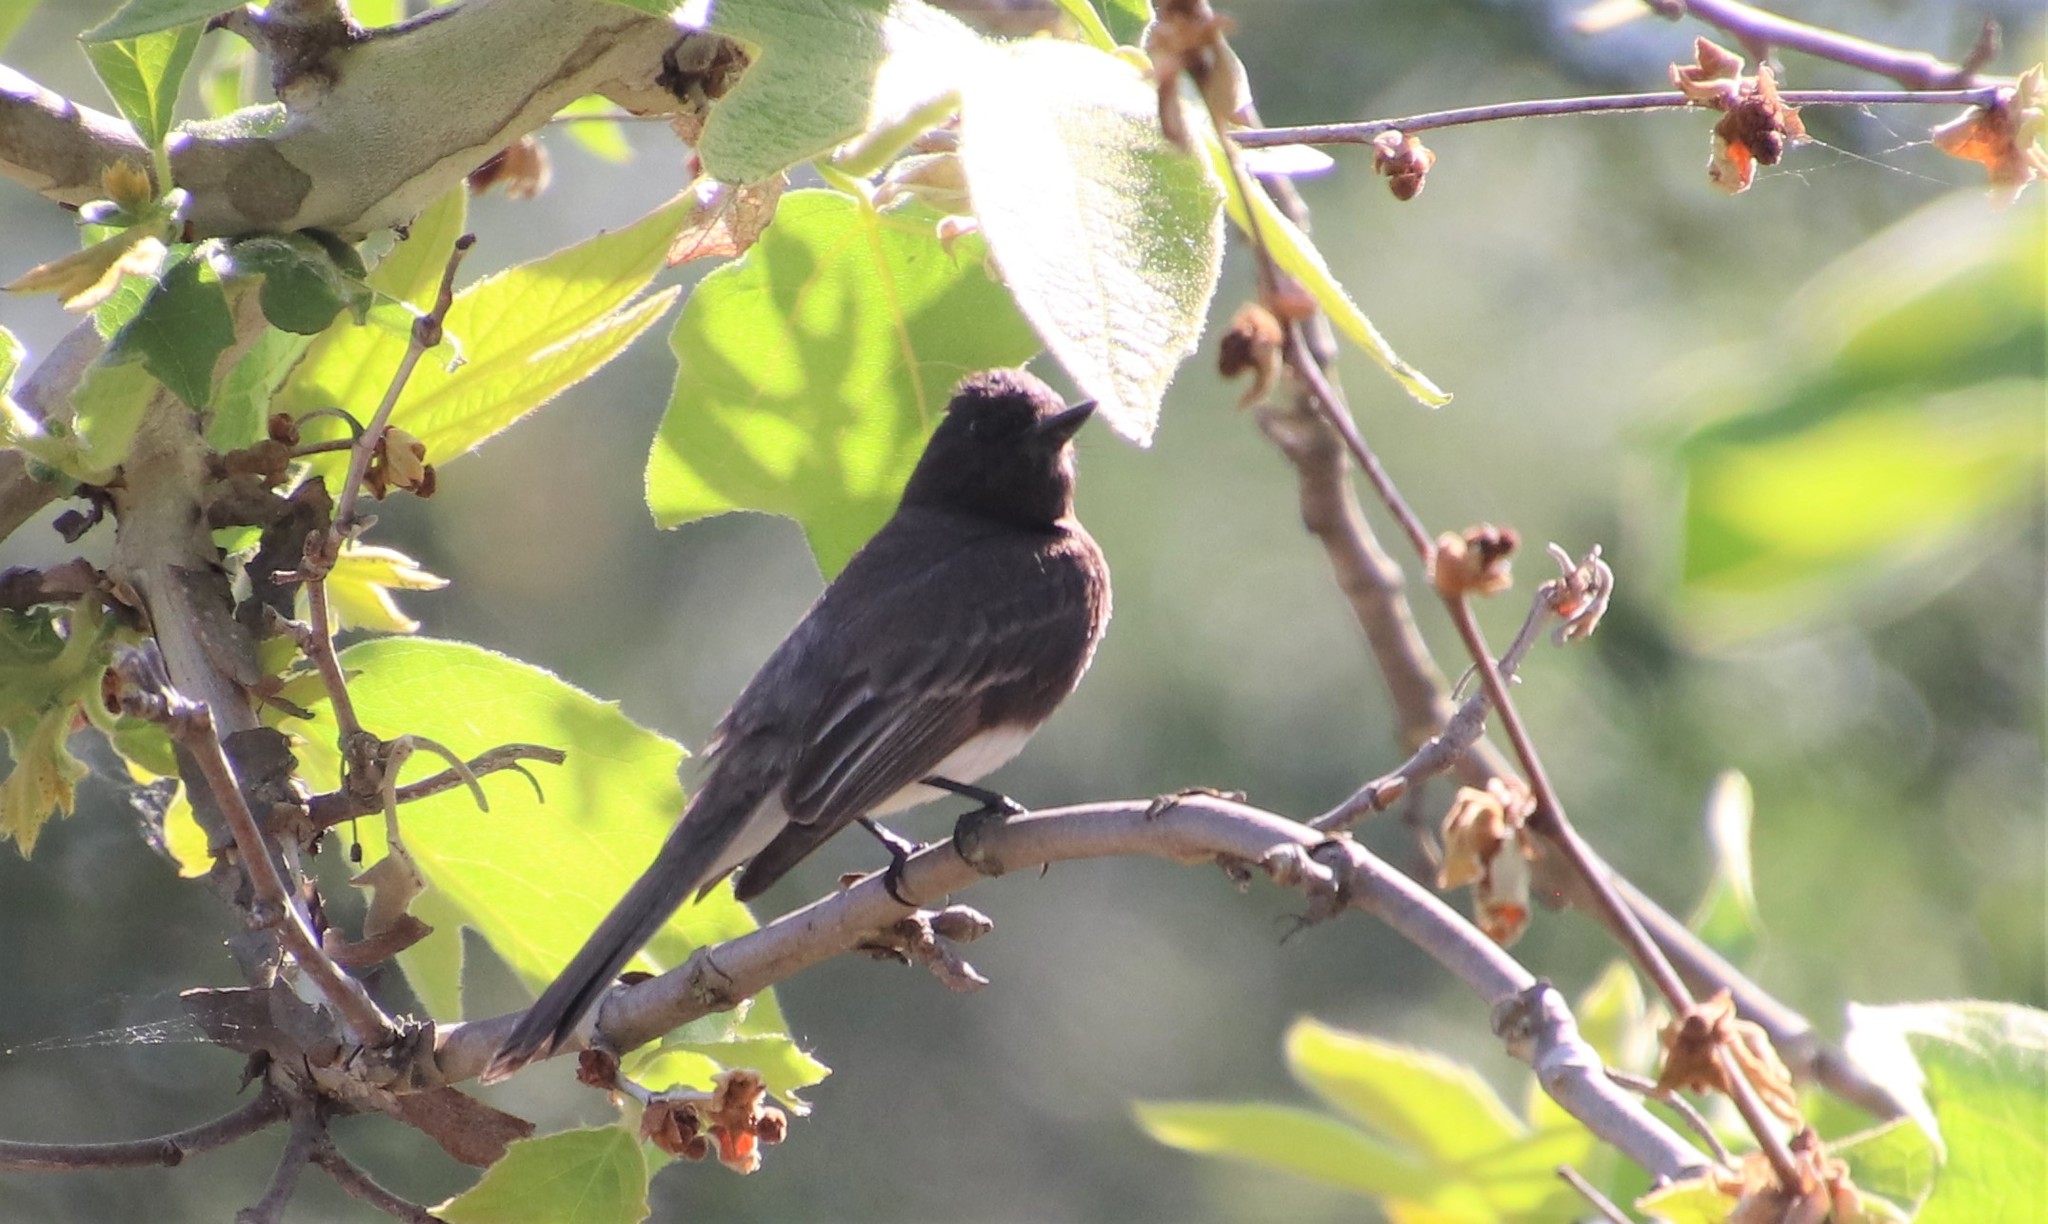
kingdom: Animalia
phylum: Chordata
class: Aves
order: Passeriformes
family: Tyrannidae
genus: Sayornis
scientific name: Sayornis nigricans
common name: Black phoebe
